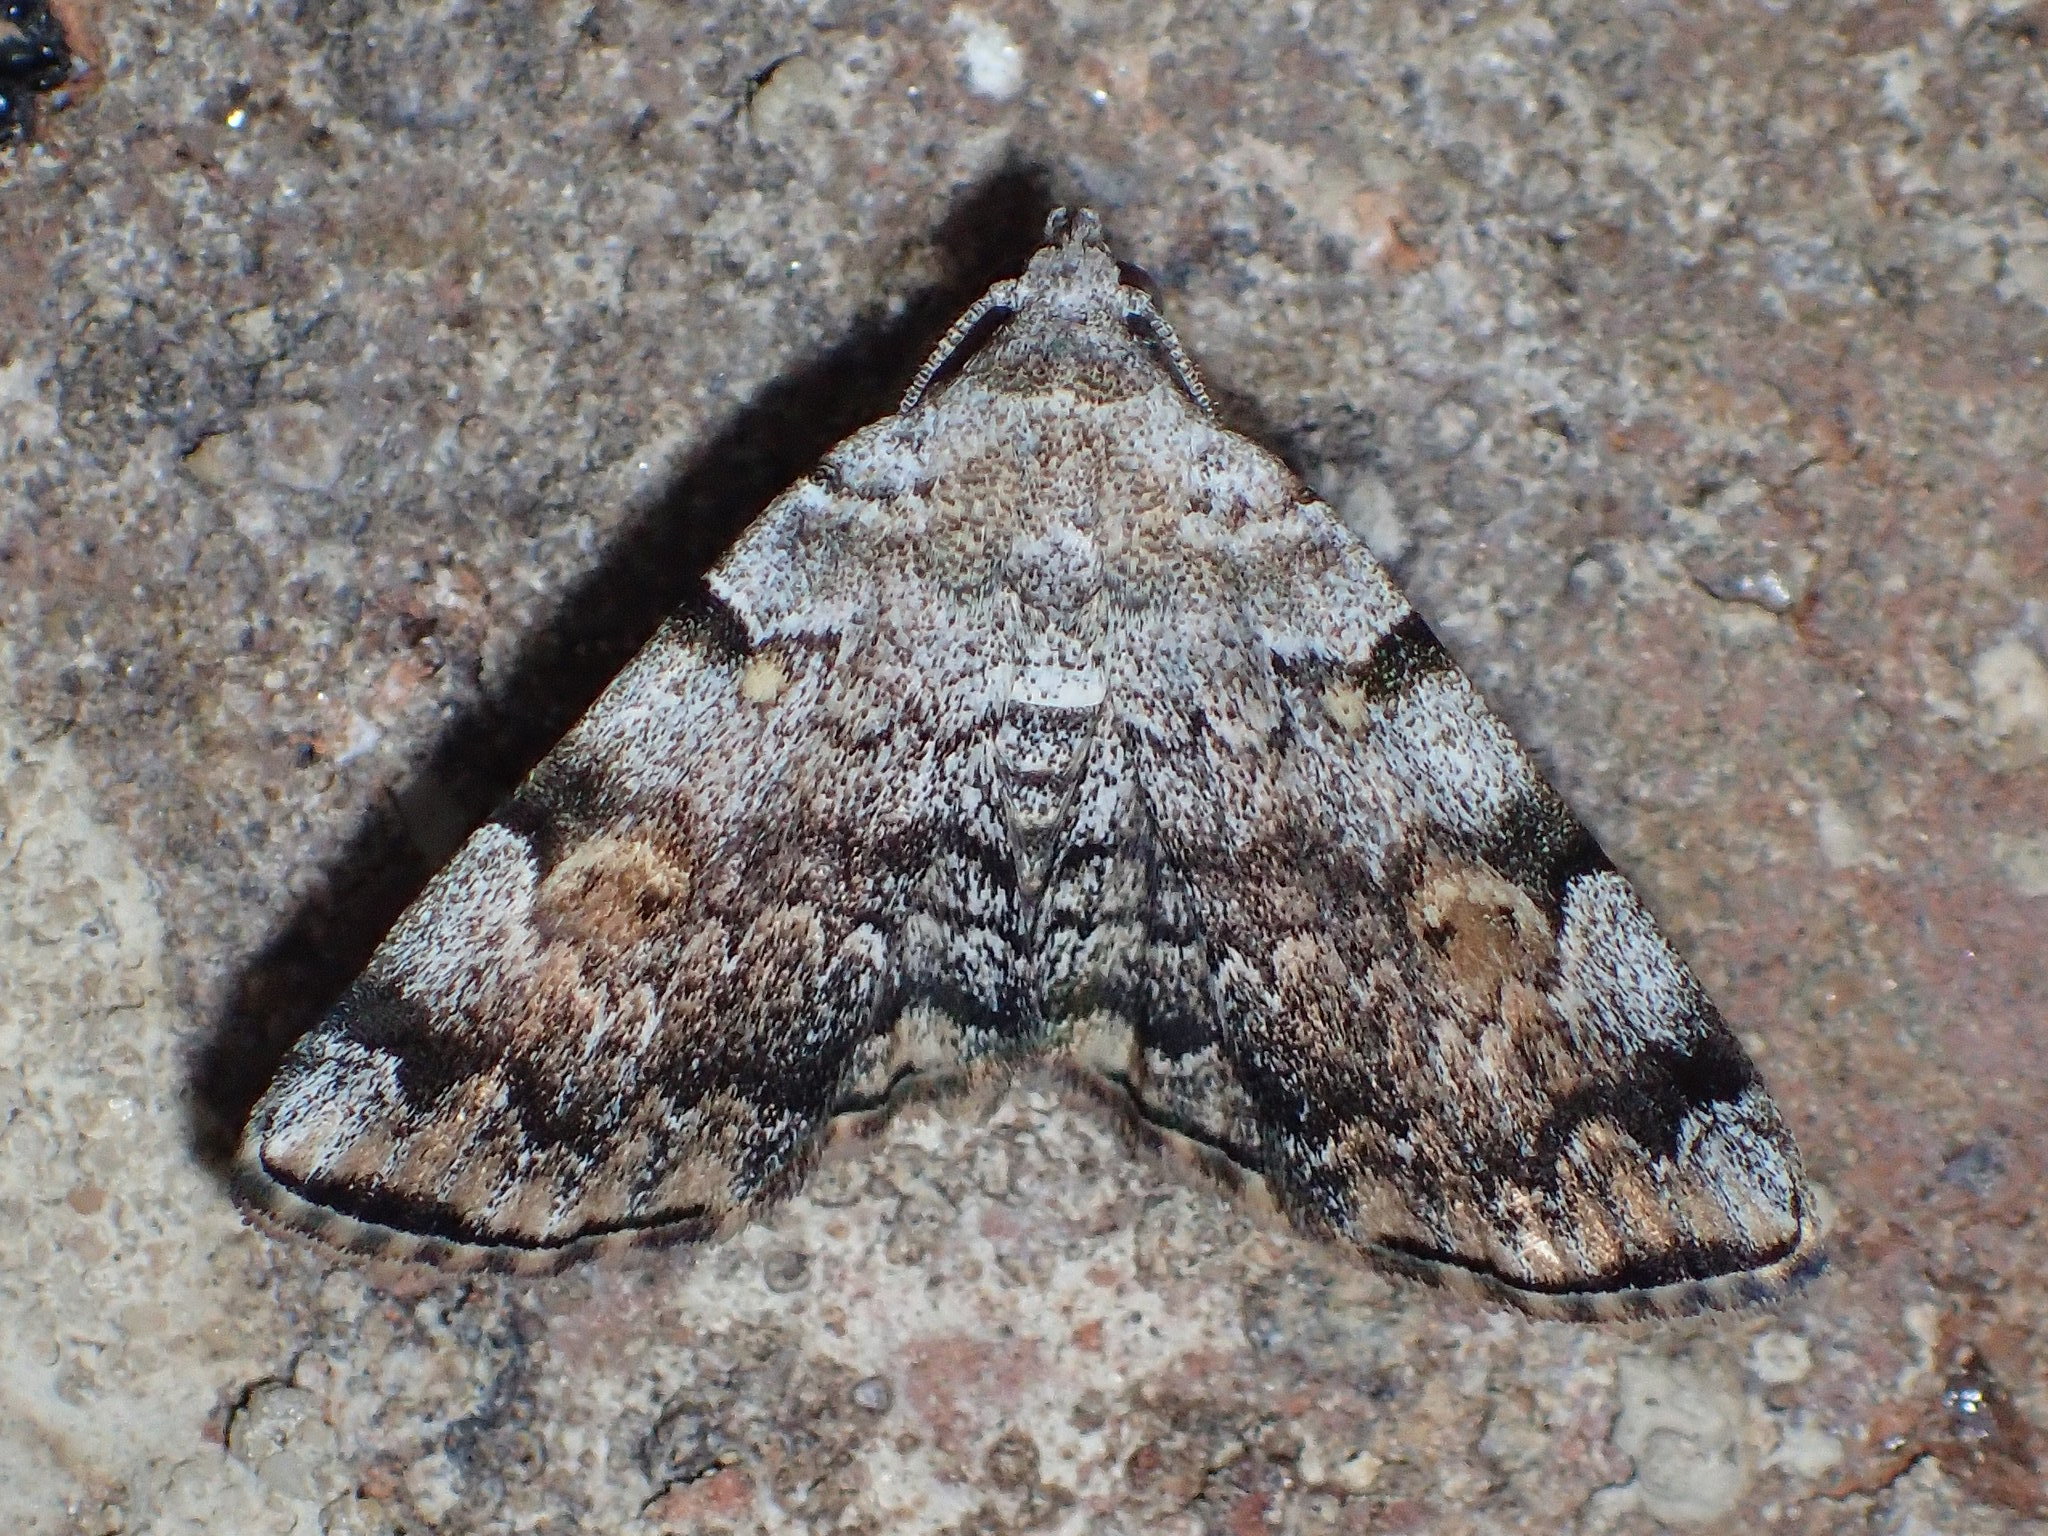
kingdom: Animalia
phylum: Arthropoda
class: Insecta
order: Lepidoptera
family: Erebidae
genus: Idia
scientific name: Idia americalis
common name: American idia moth
